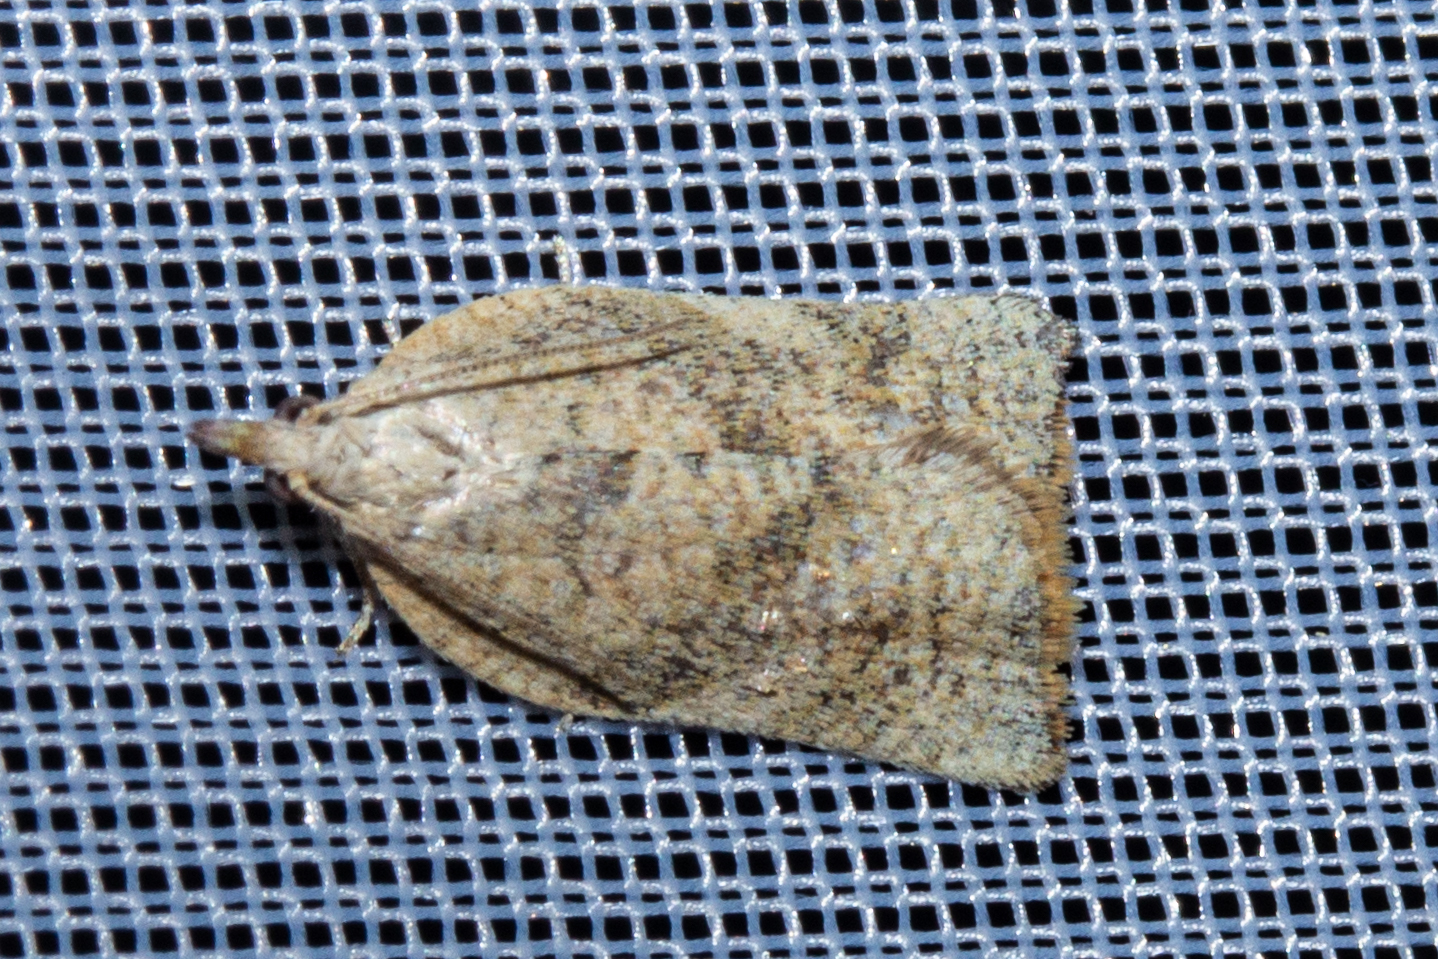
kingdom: Animalia
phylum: Arthropoda
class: Insecta
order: Lepidoptera
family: Tortricidae
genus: Catamacta
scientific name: Catamacta gavisana
